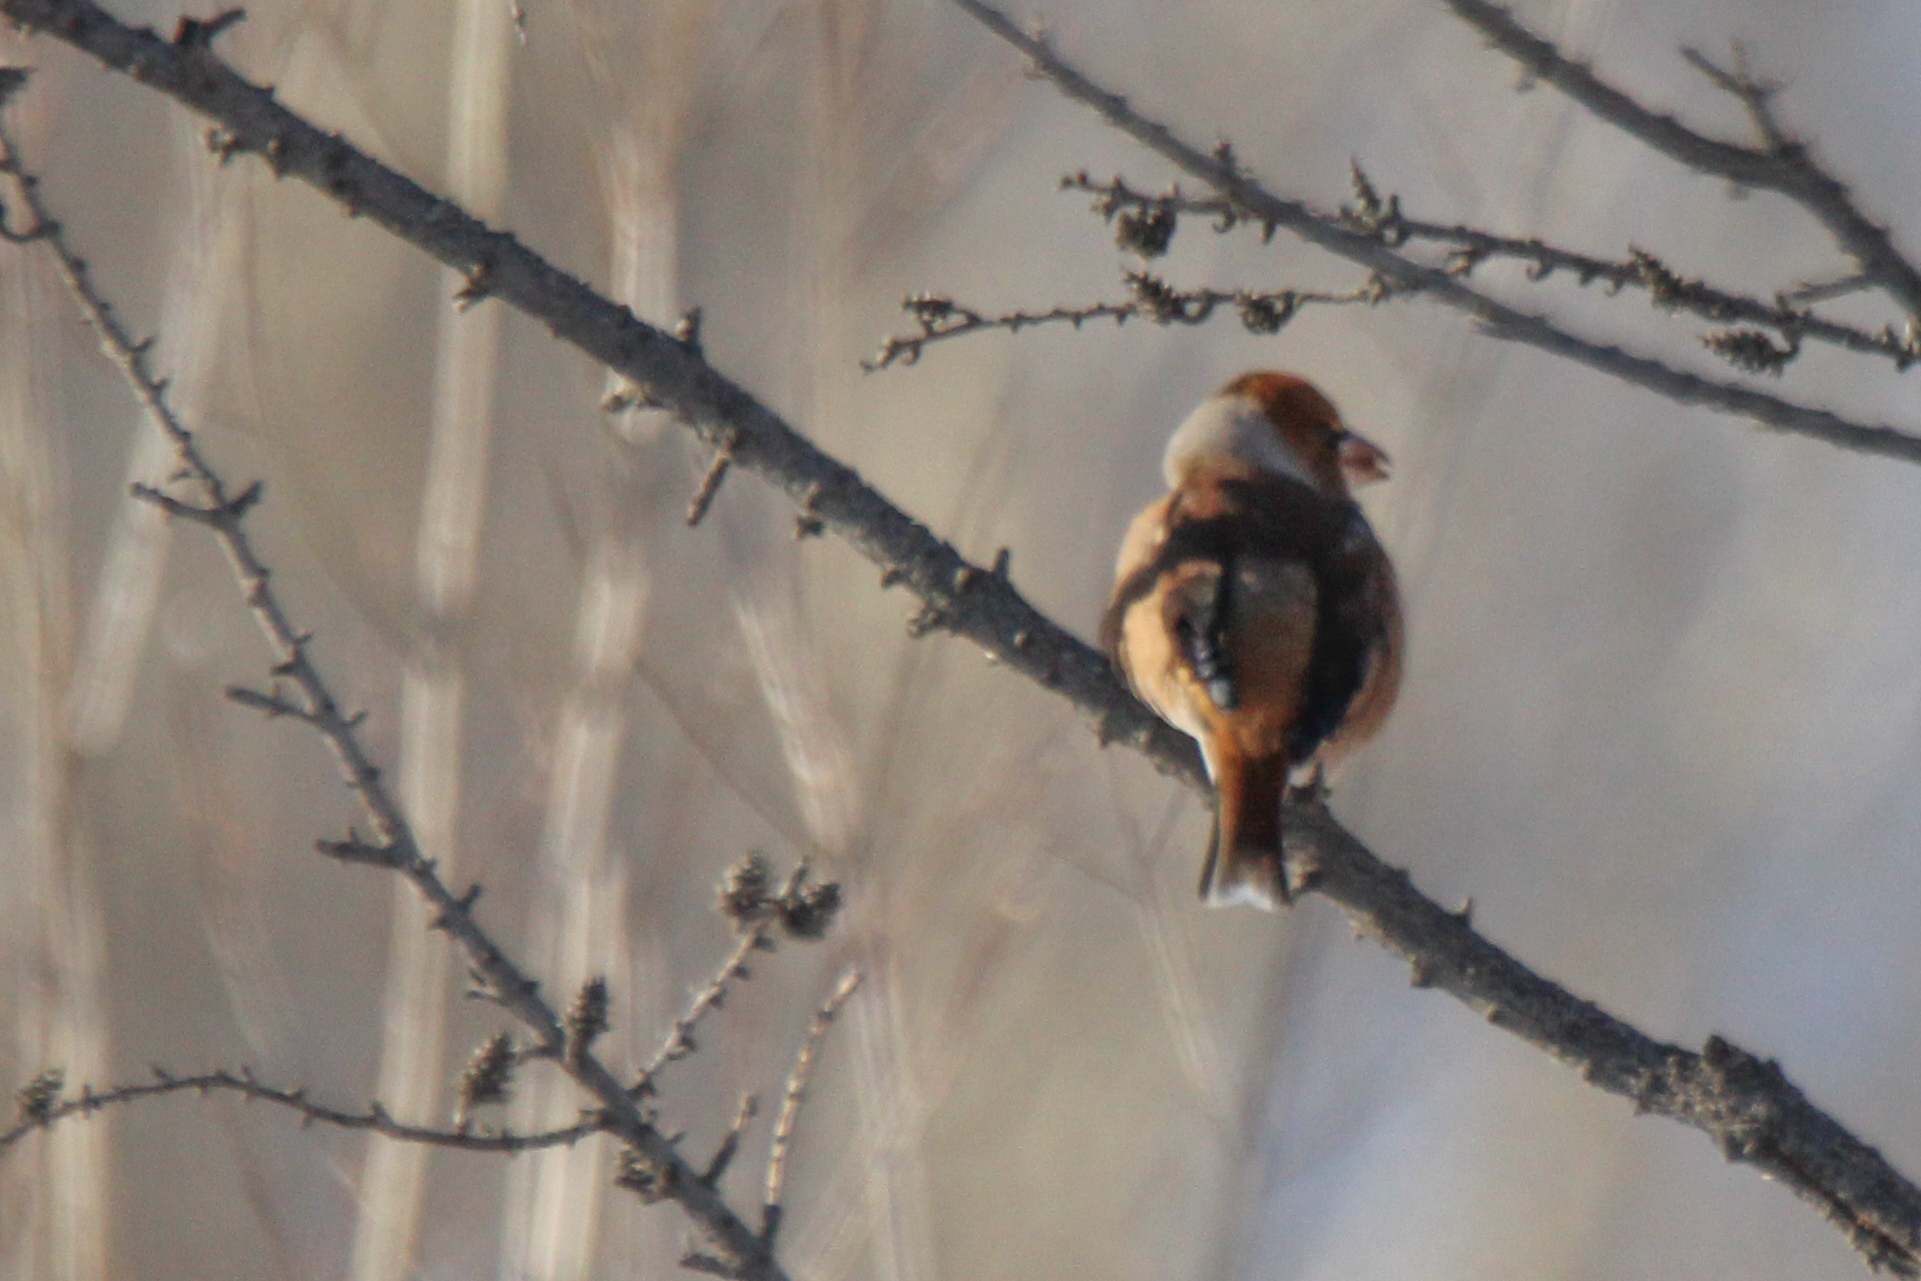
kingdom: Animalia
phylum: Chordata
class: Aves
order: Passeriformes
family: Fringillidae
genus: Coccothraustes
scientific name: Coccothraustes coccothraustes
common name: Hawfinch
